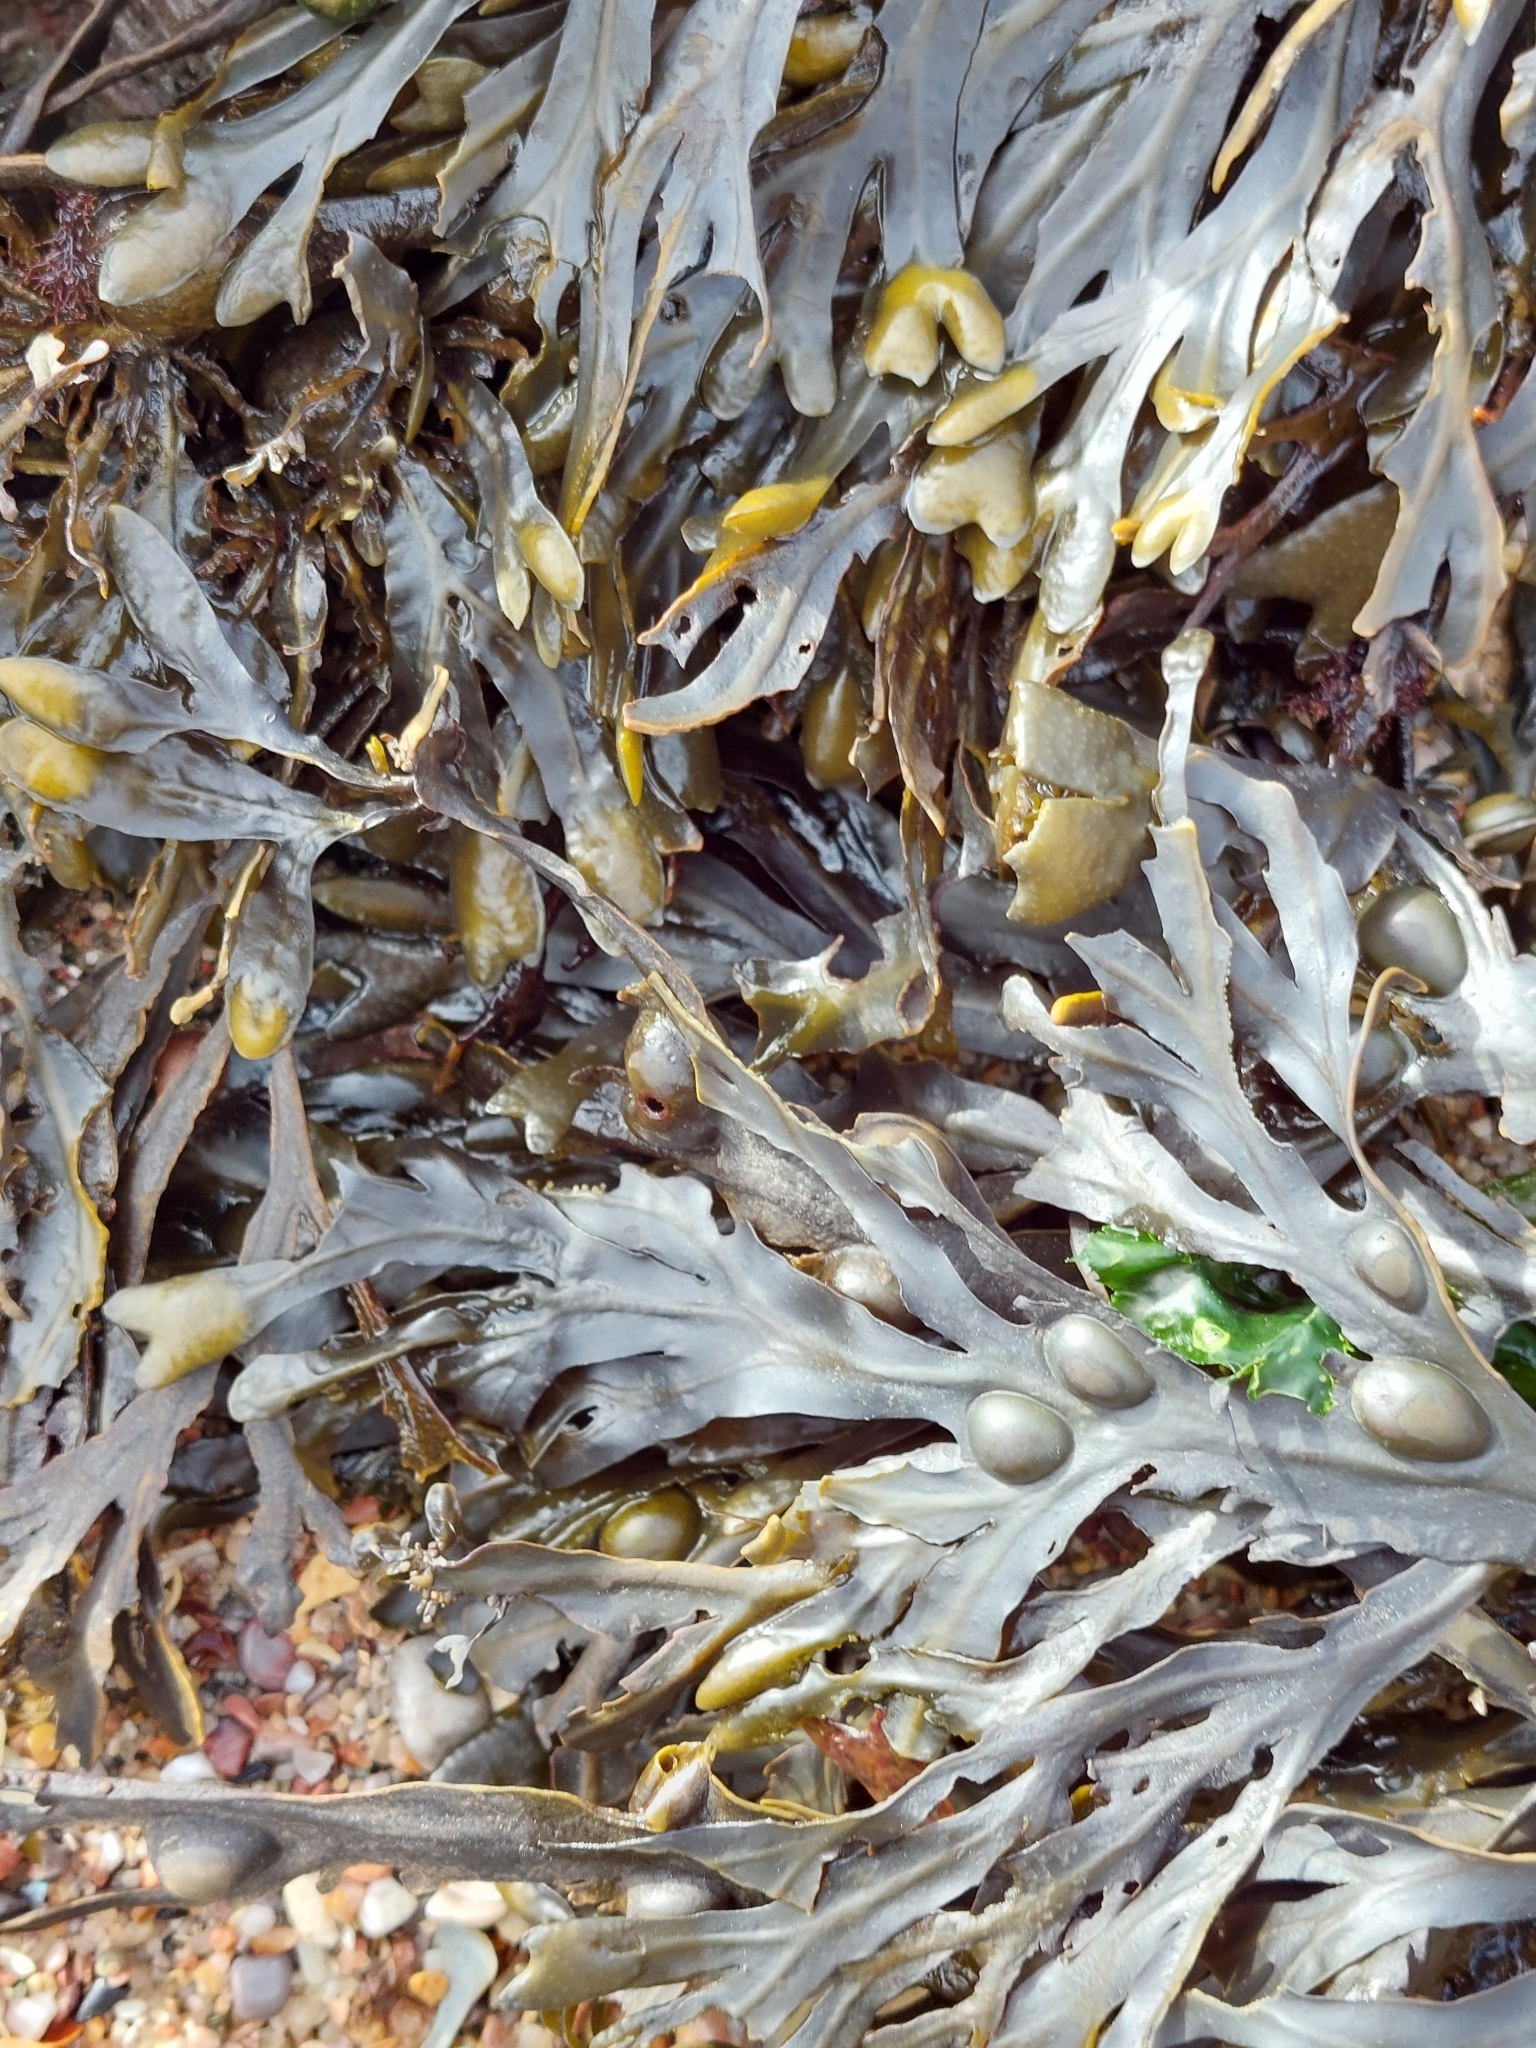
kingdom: Chromista
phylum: Ochrophyta
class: Phaeophyceae
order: Fucales
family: Fucaceae
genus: Fucus
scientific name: Fucus vesiculosus
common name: Bladder wrack
